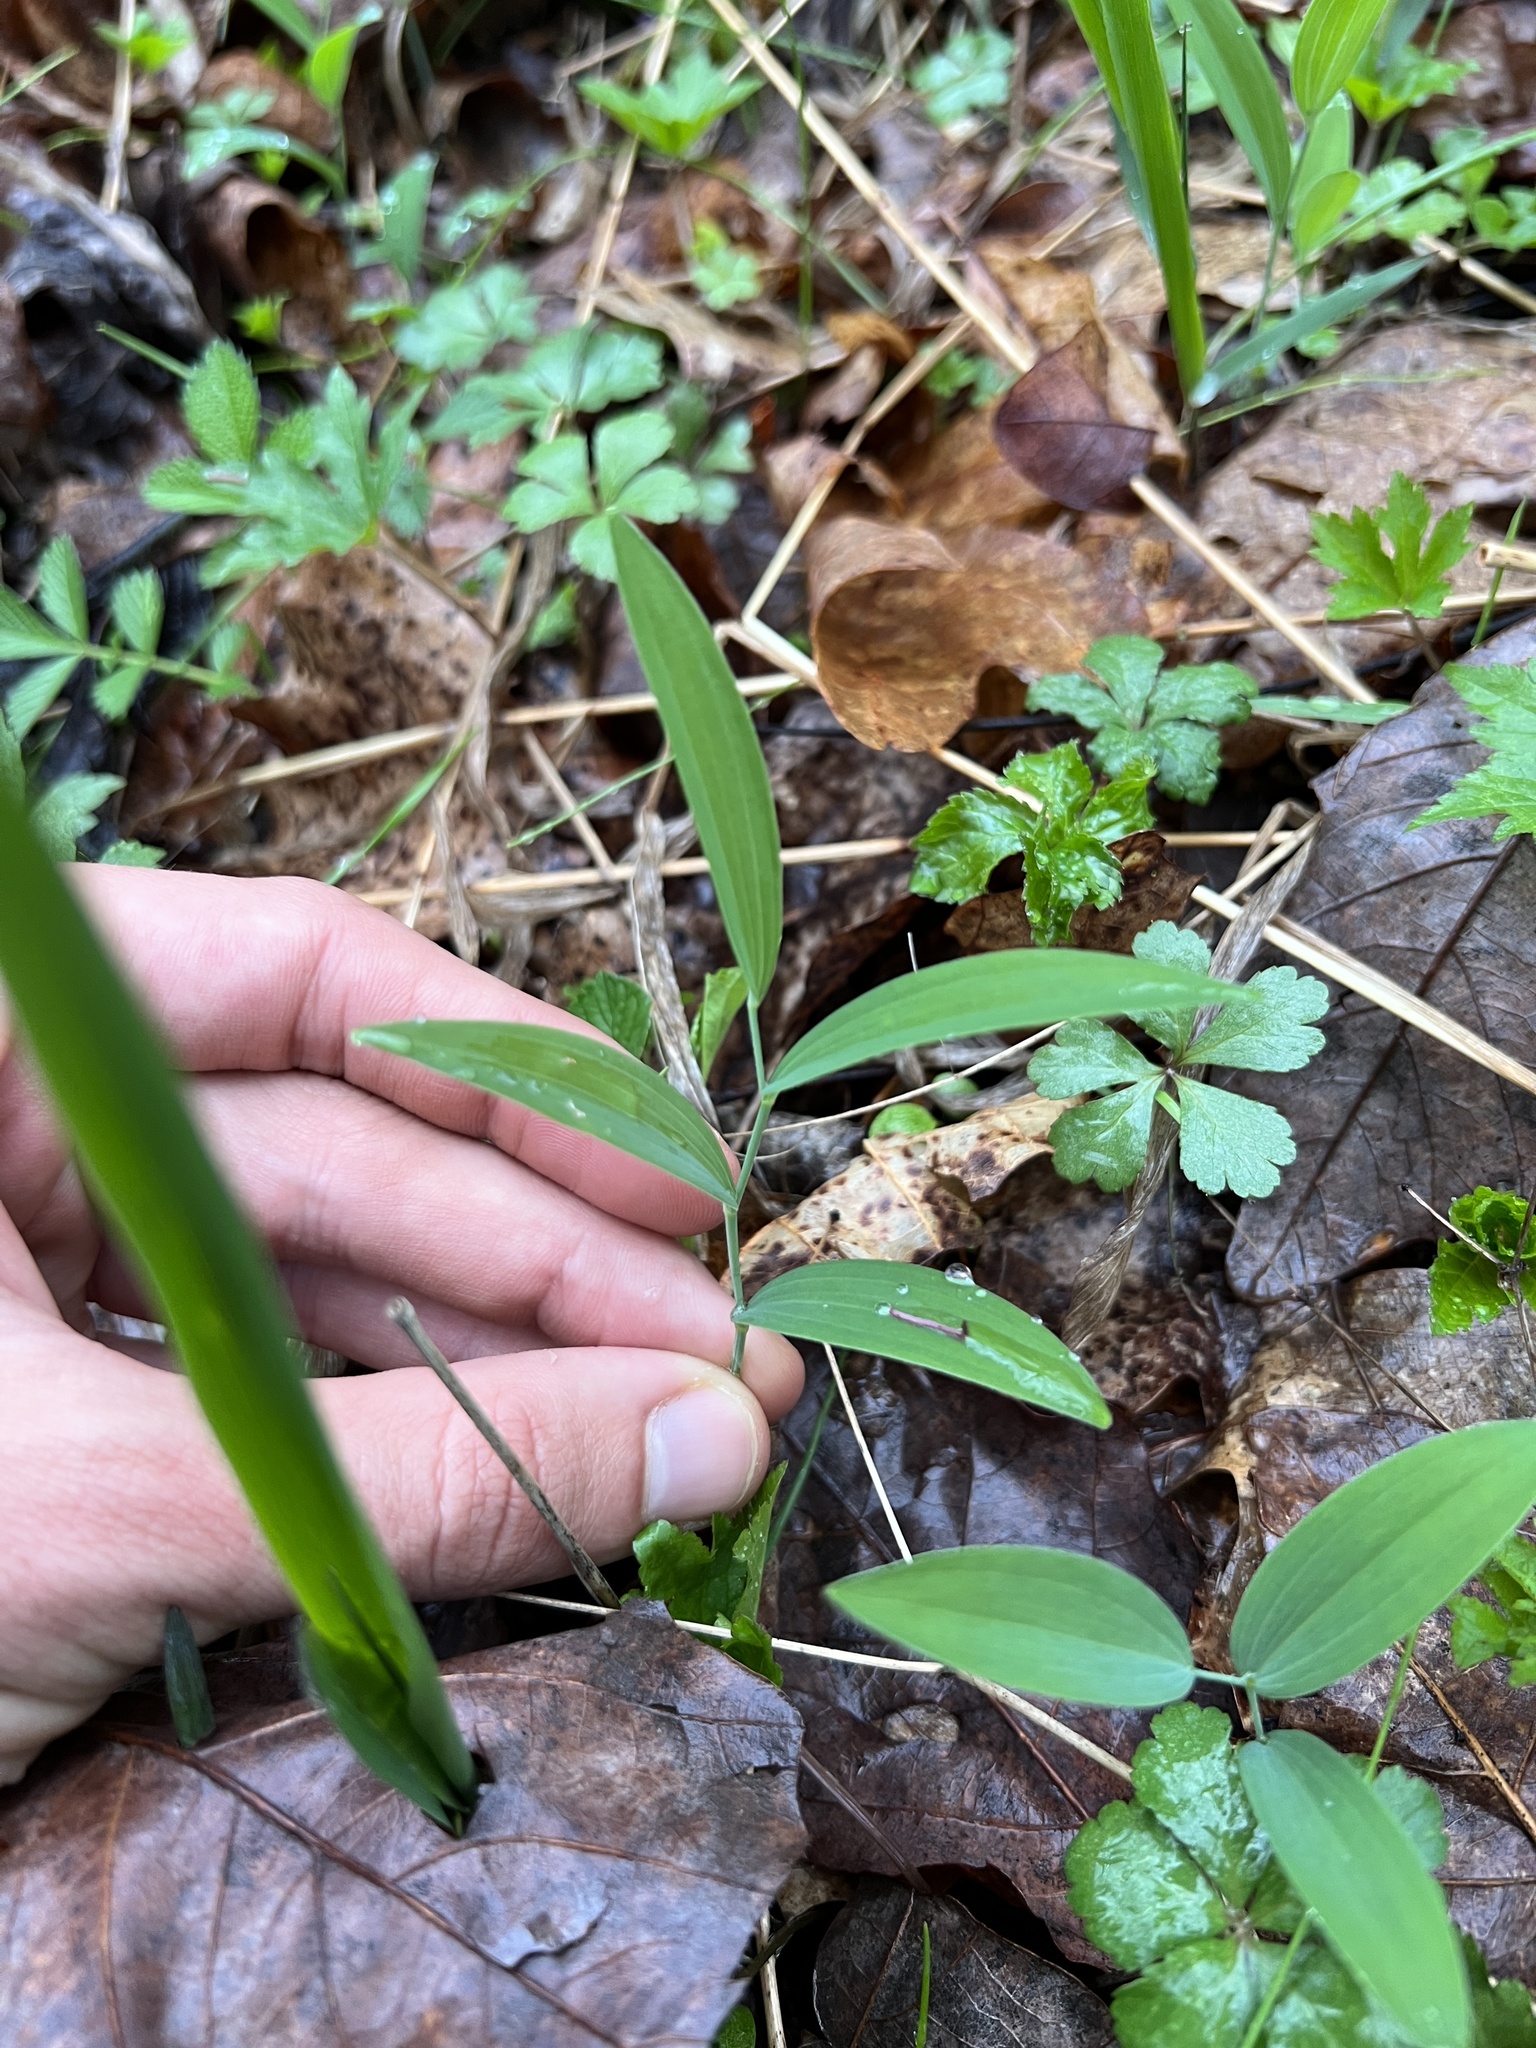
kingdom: Plantae
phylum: Tracheophyta
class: Liliopsida
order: Asparagales
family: Asparagaceae
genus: Polygonatum
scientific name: Polygonatum biflorum
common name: American solomon's-seal
